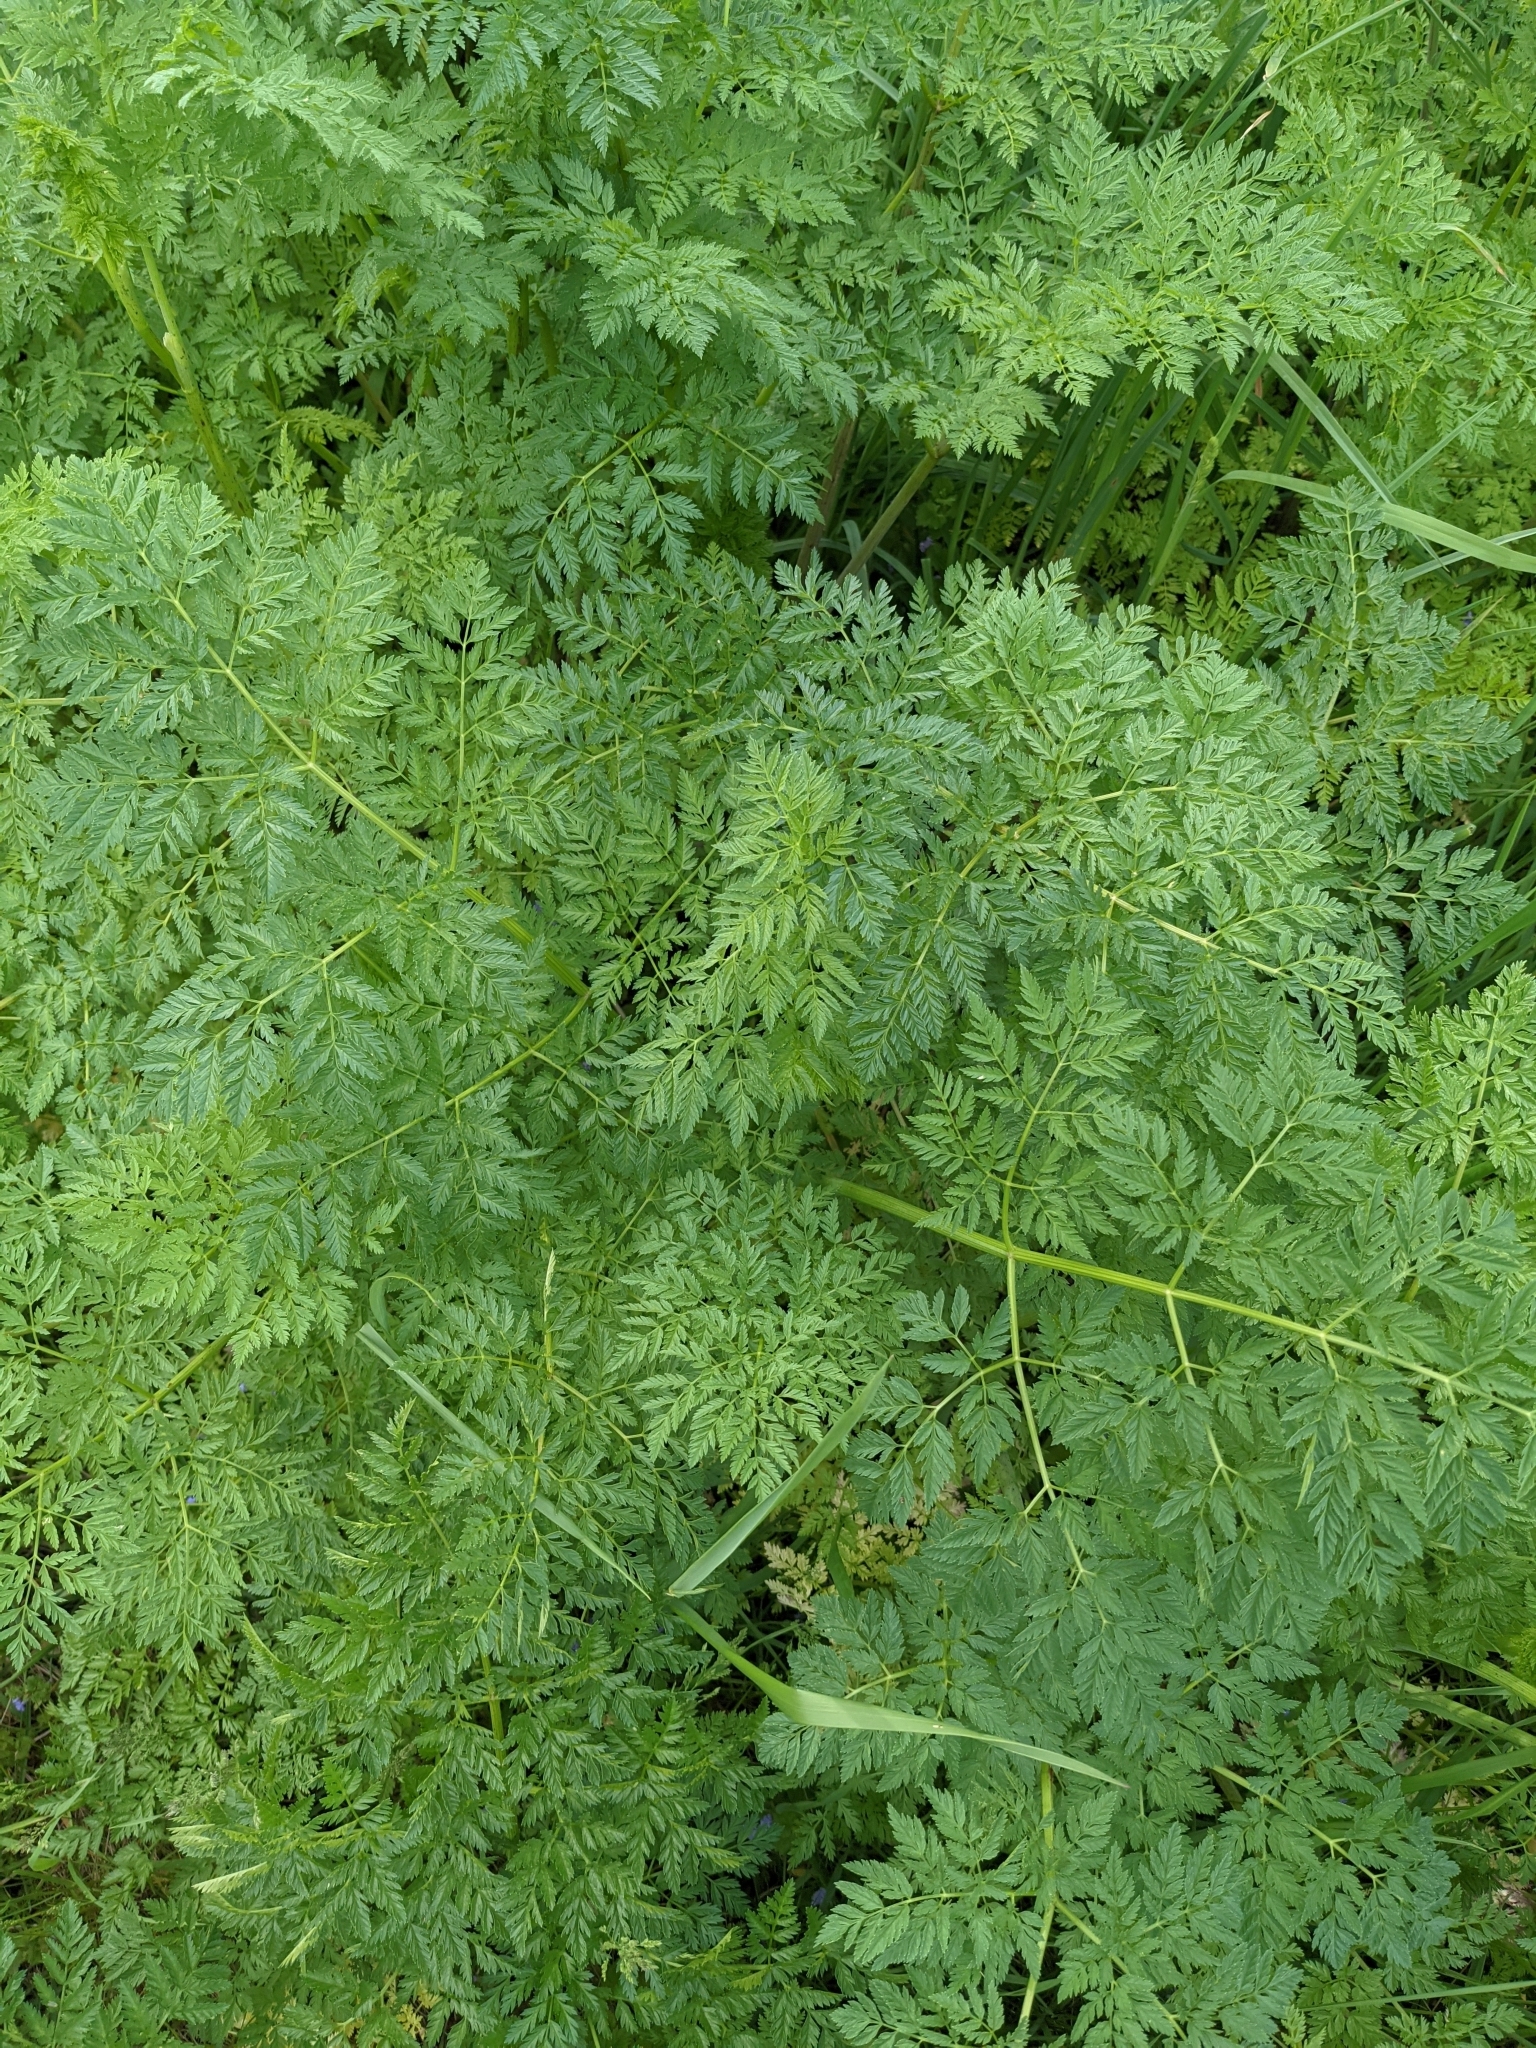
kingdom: Plantae
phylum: Tracheophyta
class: Magnoliopsida
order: Apiales
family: Apiaceae
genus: Conium
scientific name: Conium maculatum
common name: Hemlock
